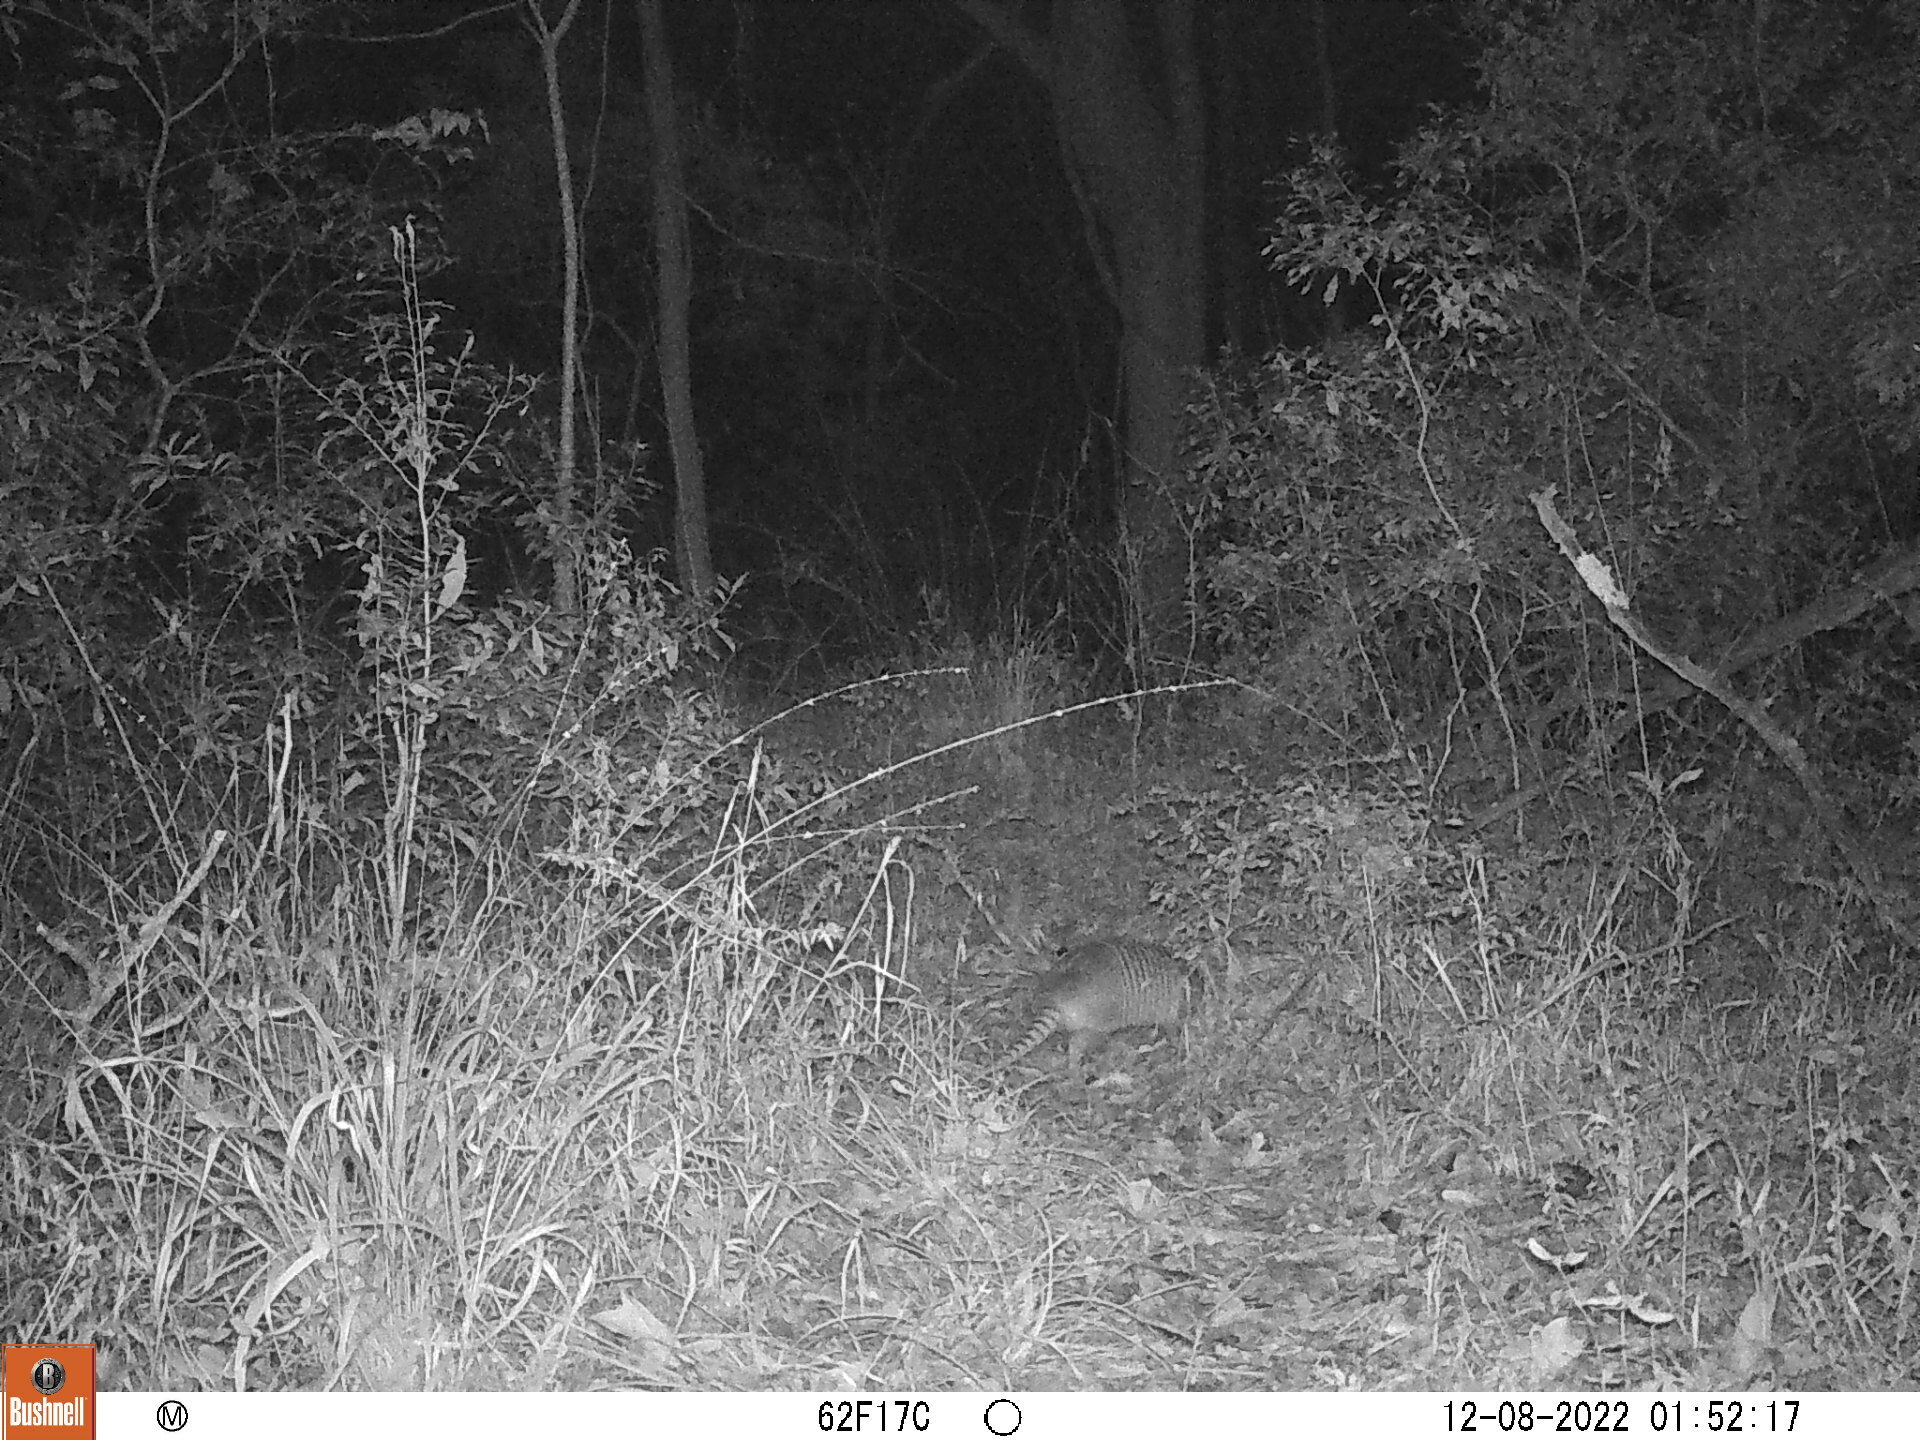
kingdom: Animalia
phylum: Chordata
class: Mammalia
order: Cingulata
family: Dasypodidae
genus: Dasypus
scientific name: Dasypus novemcinctus
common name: Nine-banded armadillo
